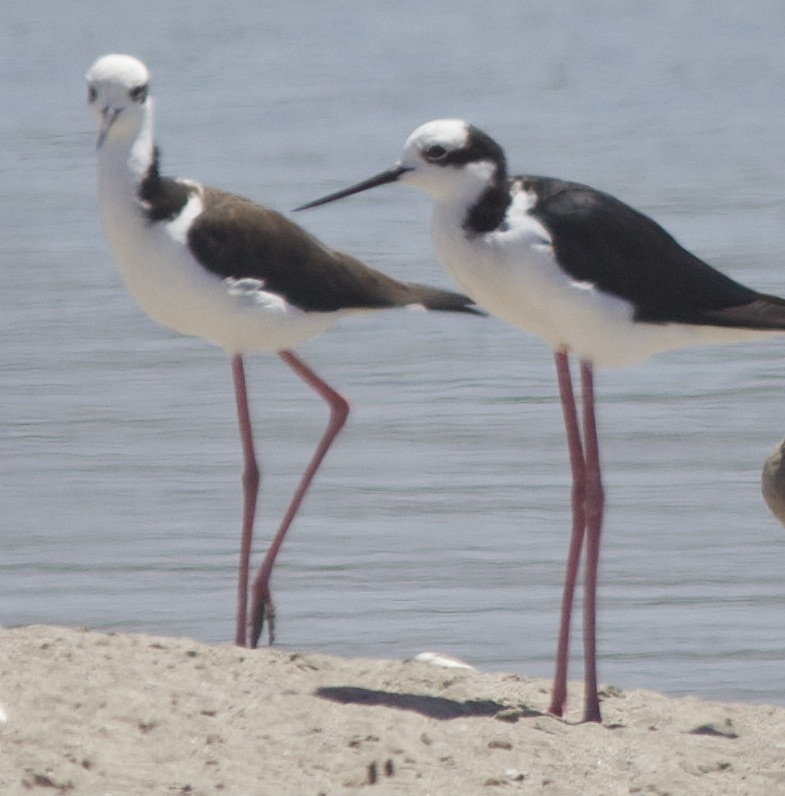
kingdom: Animalia
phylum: Chordata
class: Aves
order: Charadriiformes
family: Recurvirostridae
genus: Himantopus
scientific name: Himantopus mexicanus
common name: Black-necked stilt
